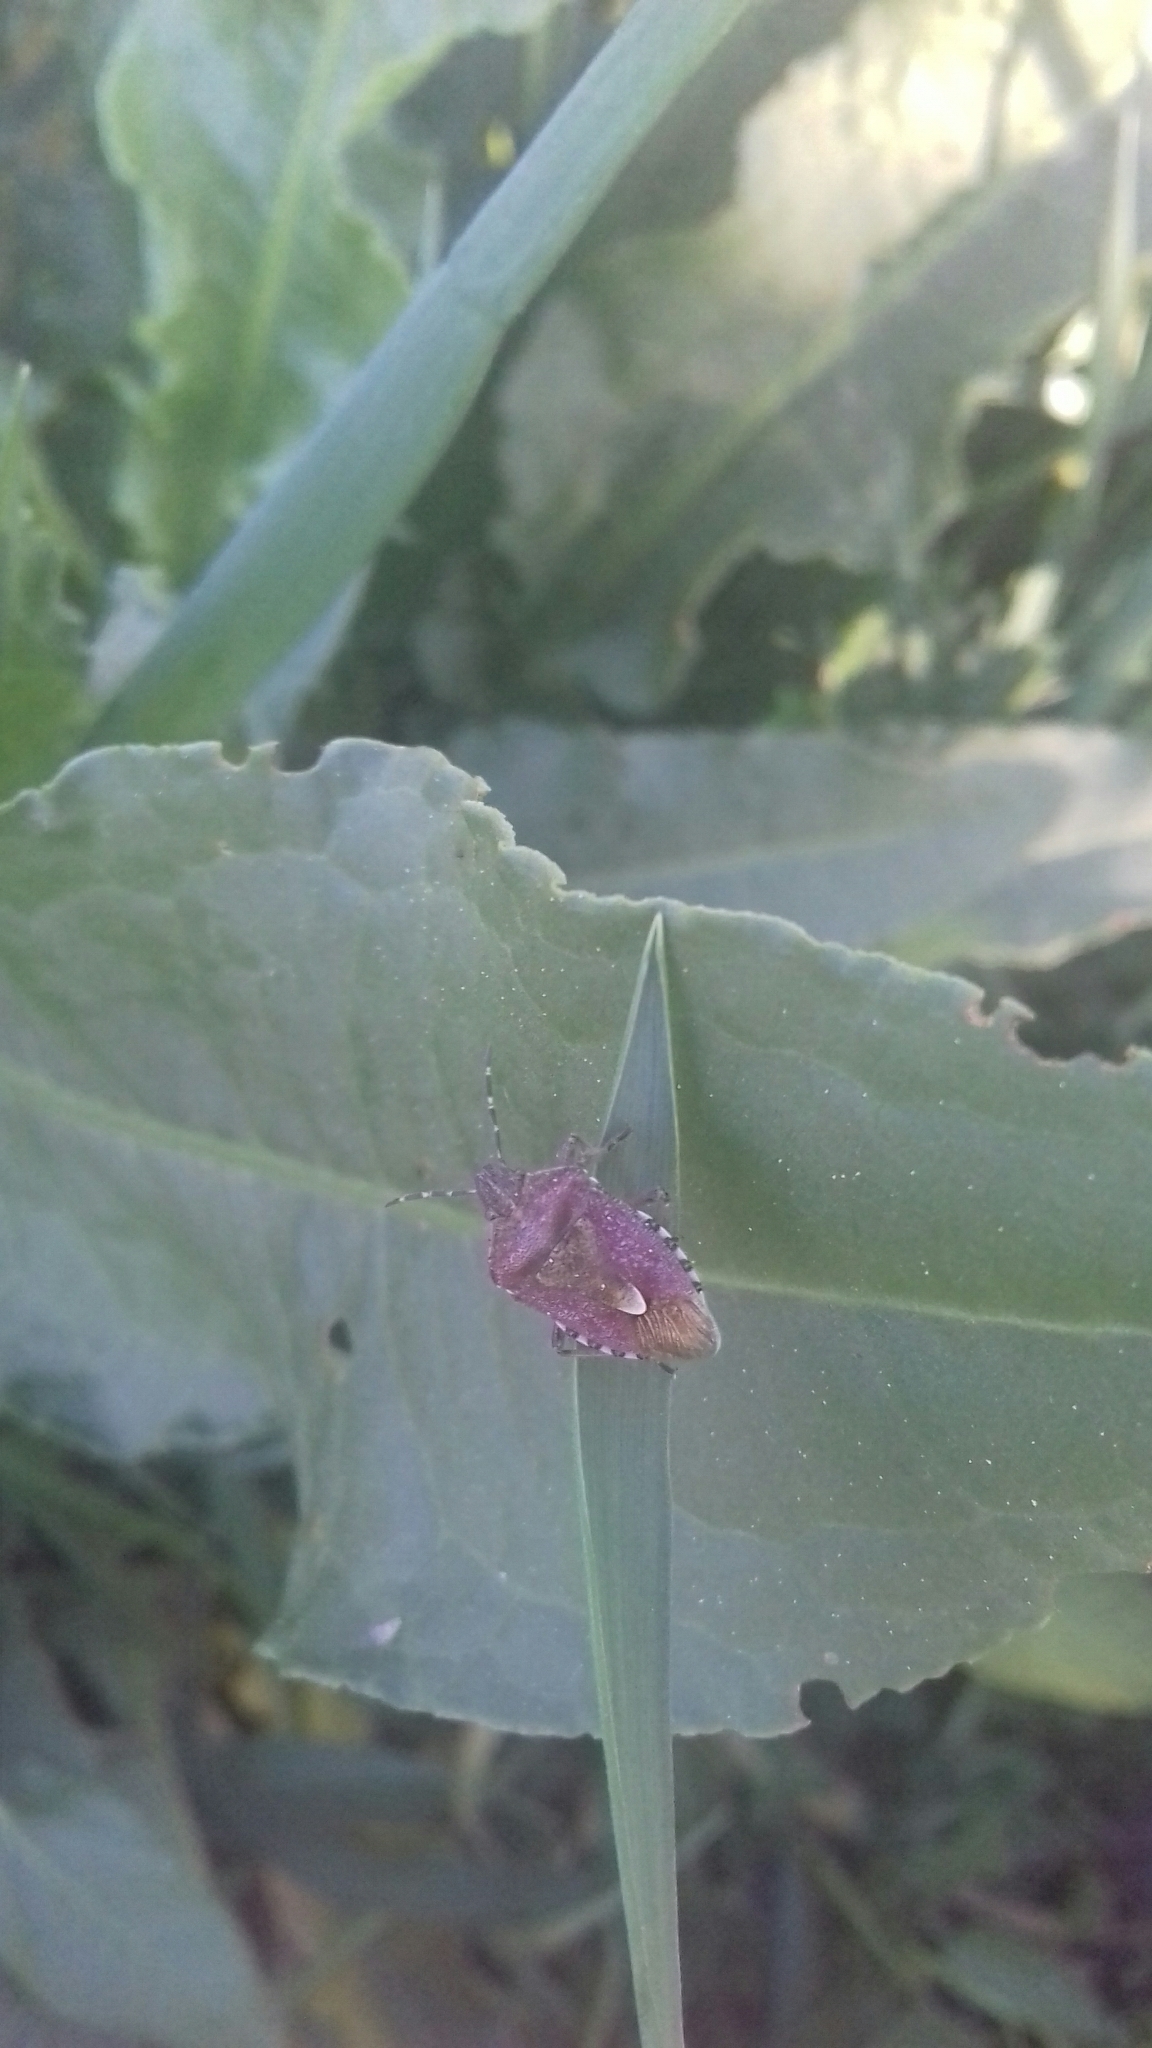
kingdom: Animalia
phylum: Arthropoda
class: Insecta
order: Hemiptera
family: Pentatomidae
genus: Dolycoris
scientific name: Dolycoris baccarum
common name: Sloe bug
